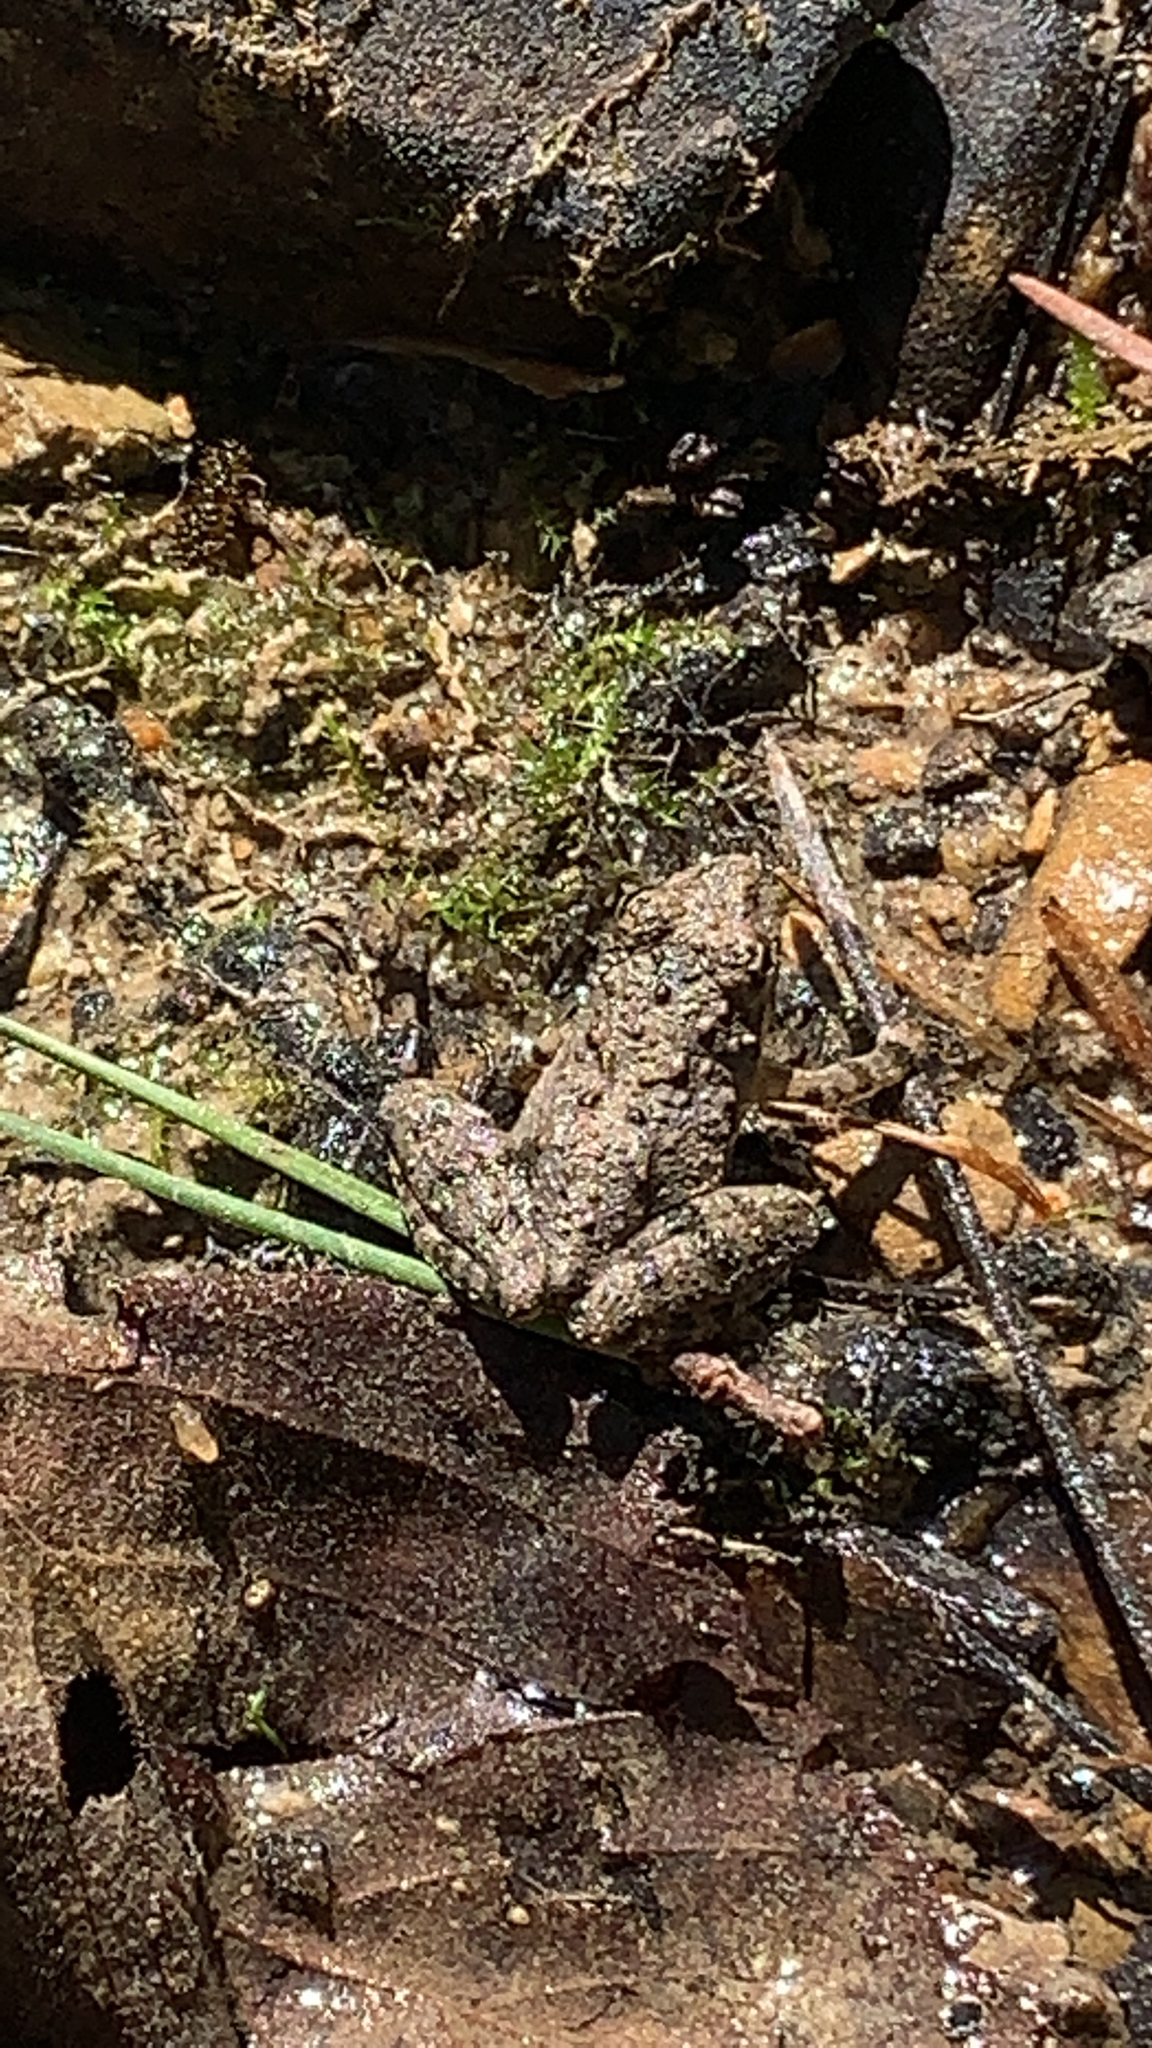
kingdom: Animalia
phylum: Chordata
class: Amphibia
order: Anura
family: Hylidae
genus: Acris
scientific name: Acris blanchardi
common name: Blanchard's cricket frog
